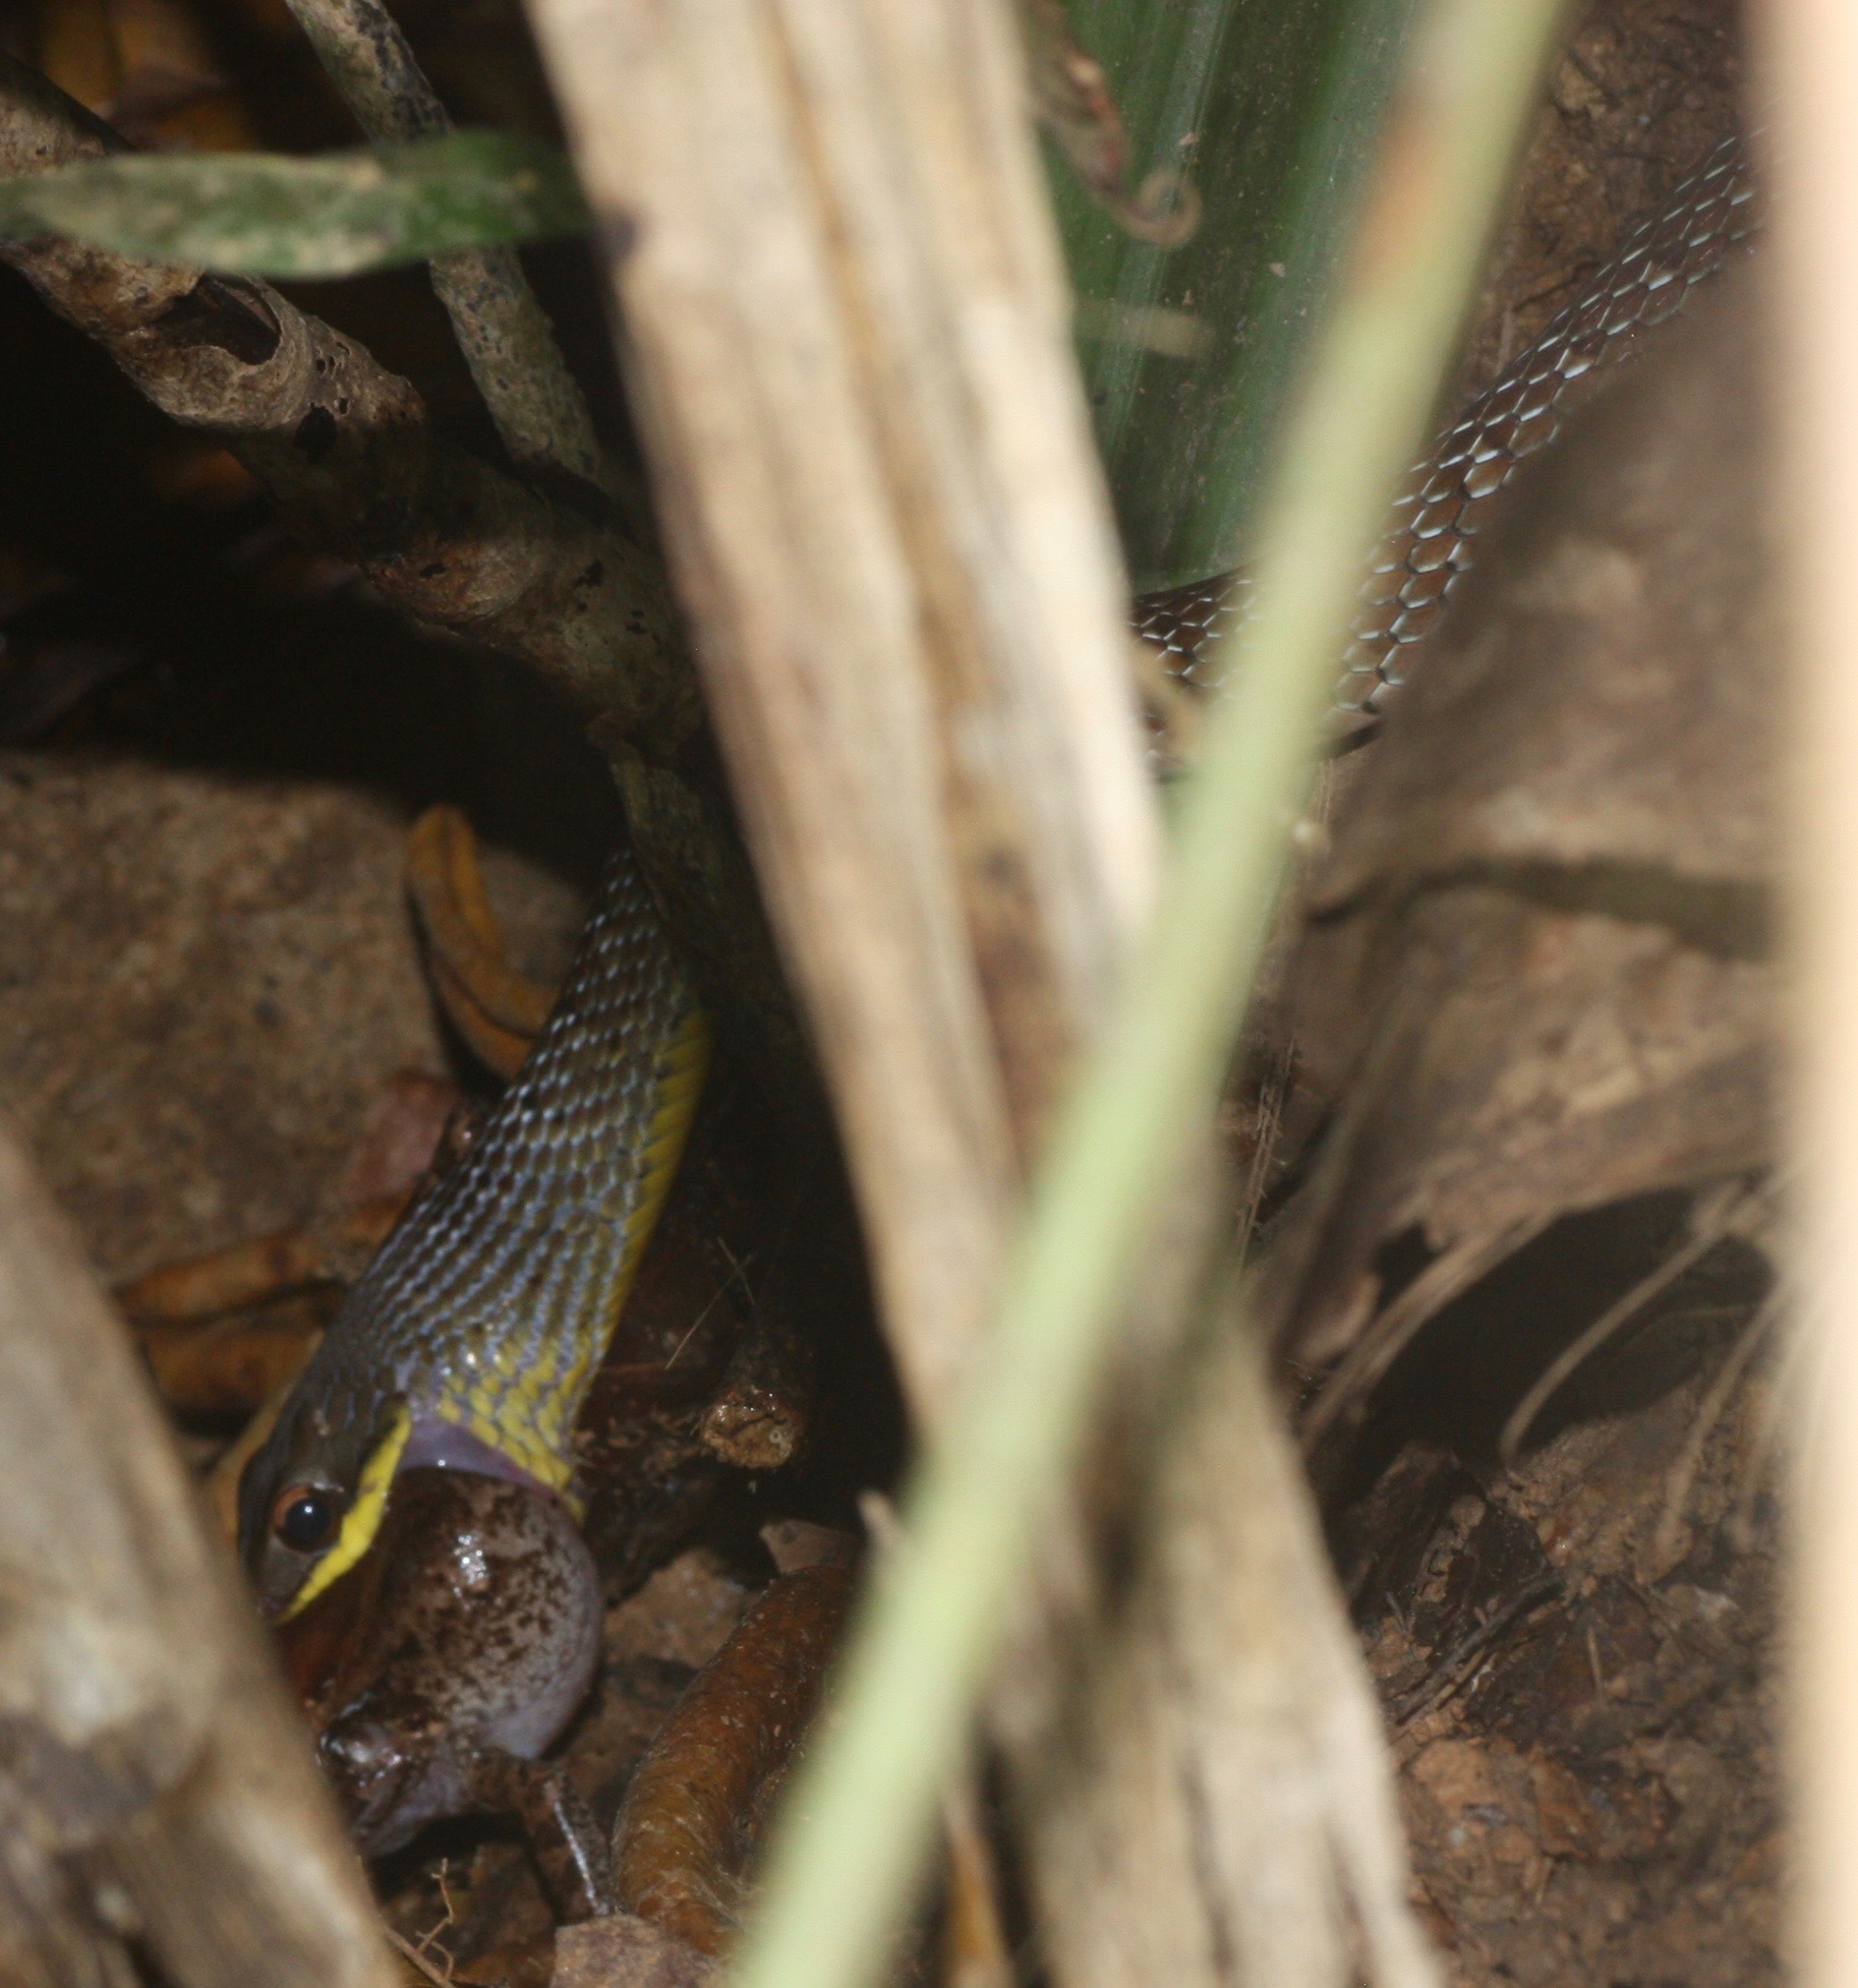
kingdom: Animalia
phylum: Chordata
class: Squamata
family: Colubridae
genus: Phrynonax
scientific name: Phrynonax poecilonotus
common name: Puffing snake
